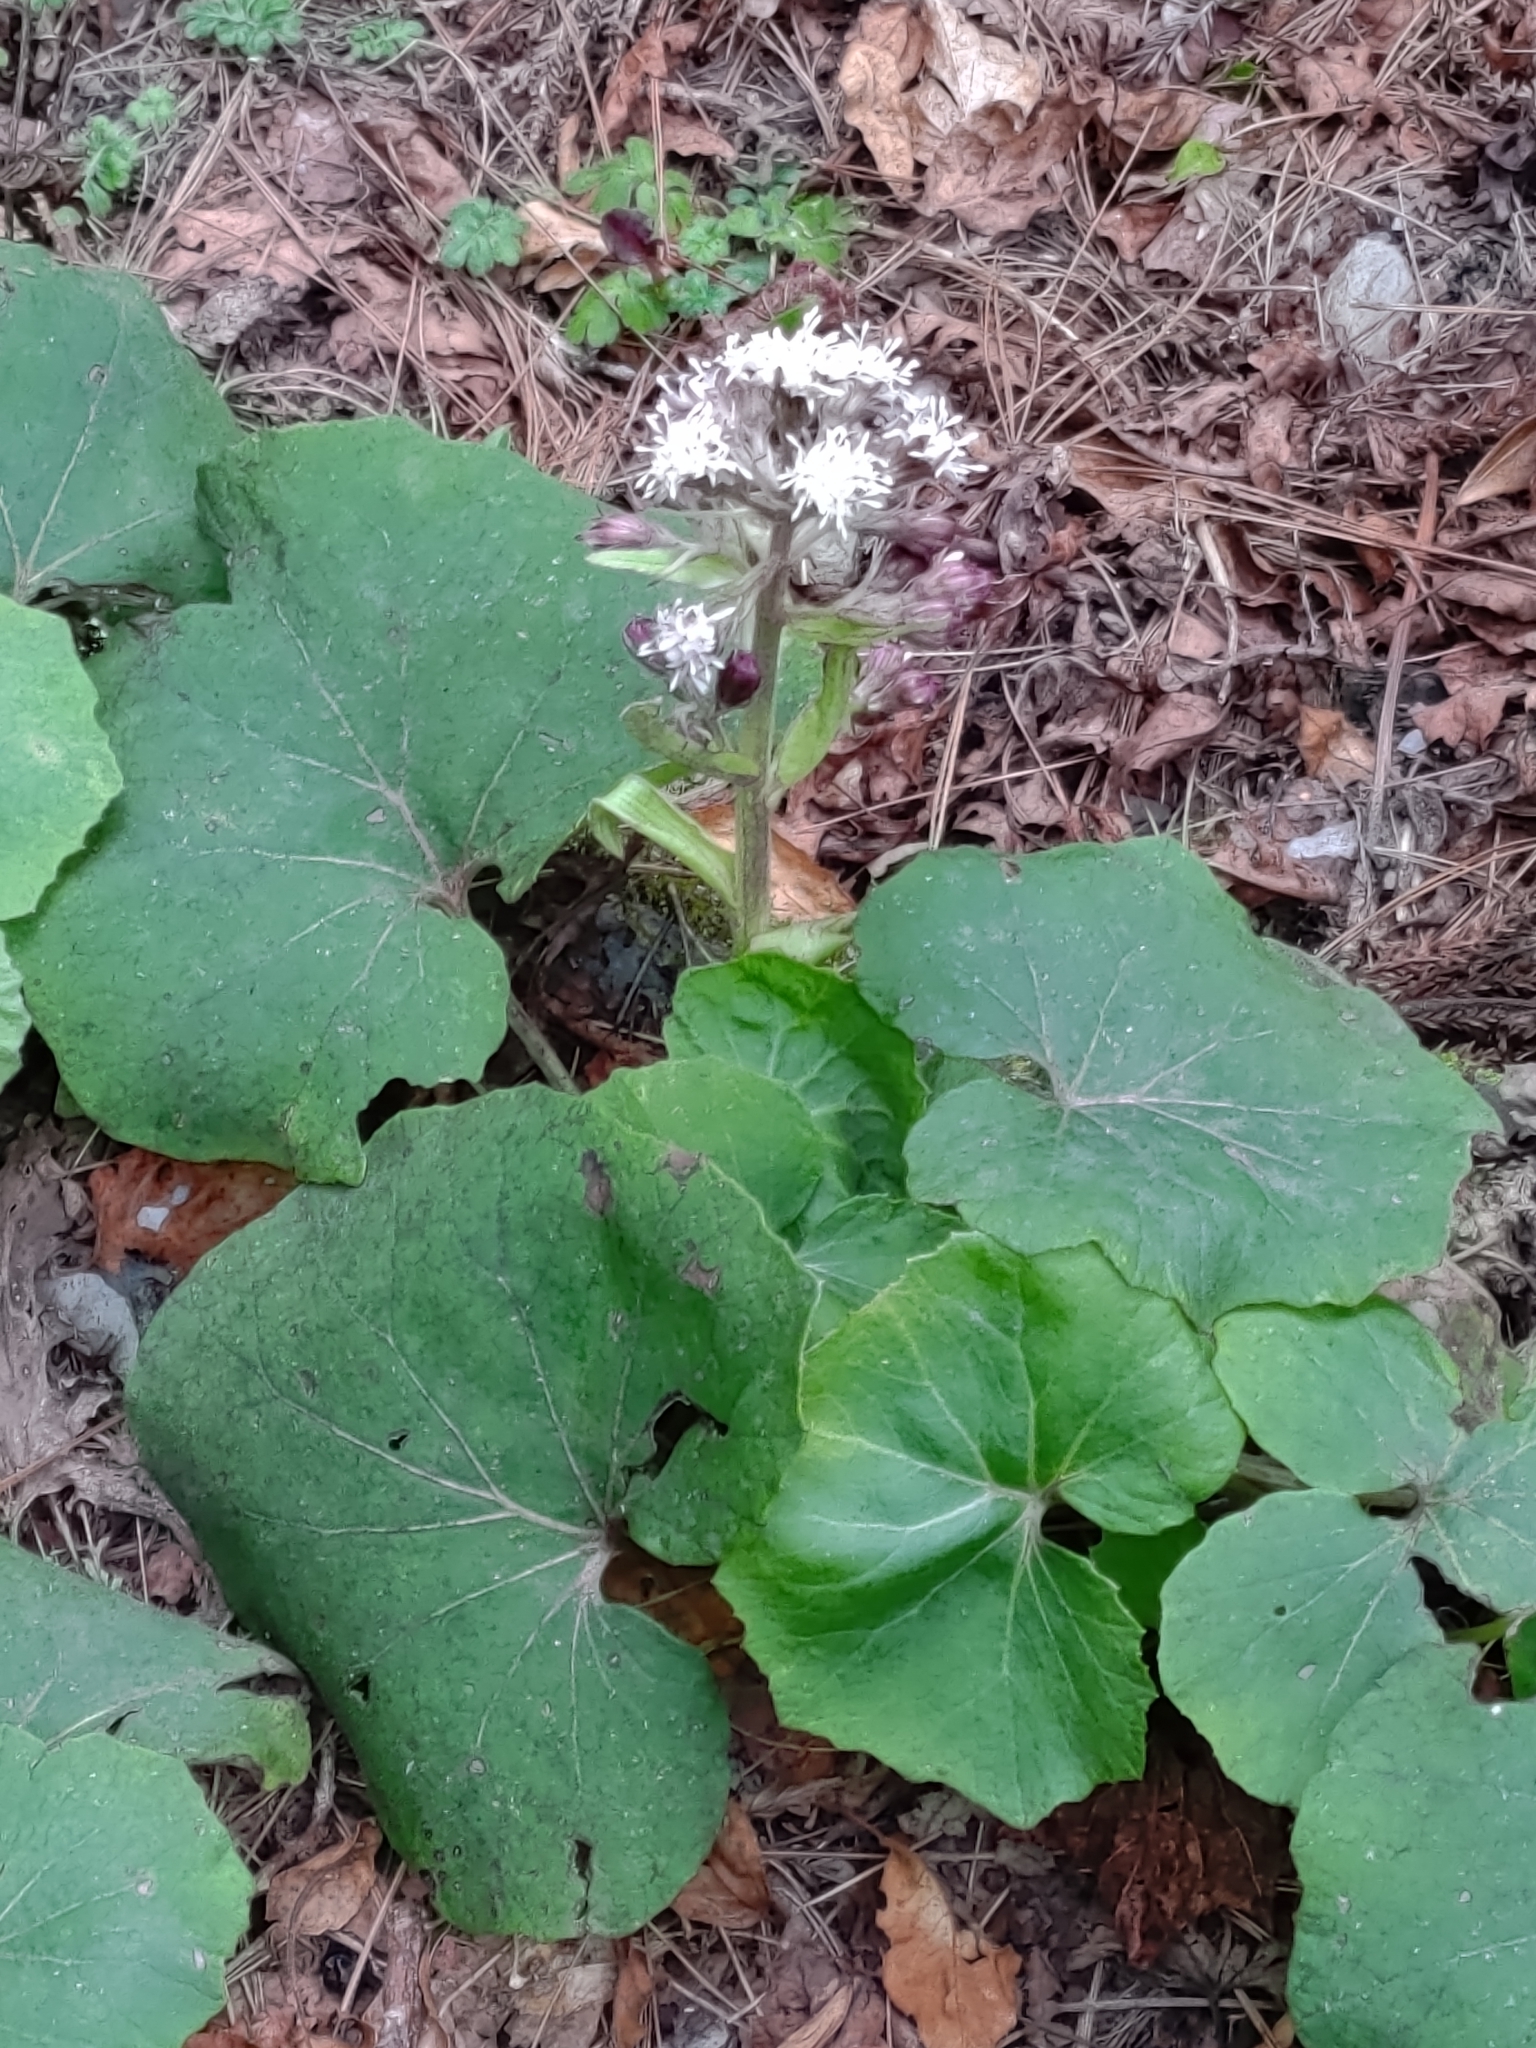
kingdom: Plantae
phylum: Tracheophyta
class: Magnoliopsida
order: Asterales
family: Asteraceae
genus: Petasites
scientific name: Petasites formosanus
